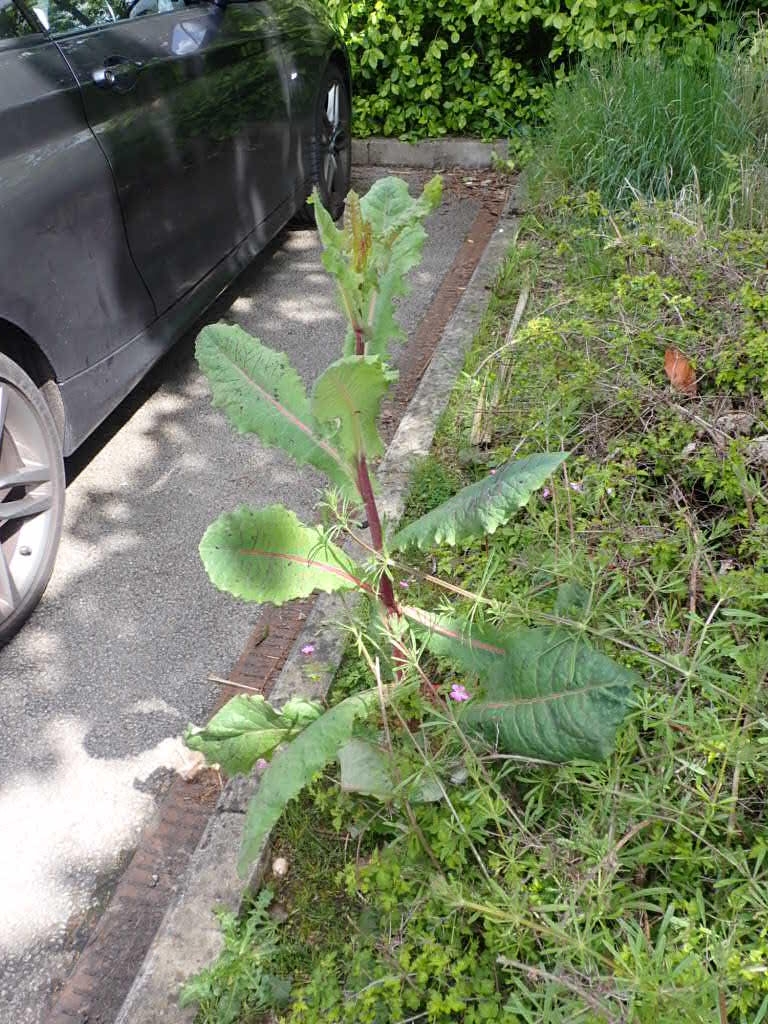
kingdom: Plantae
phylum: Tracheophyta
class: Magnoliopsida
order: Asterales
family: Asteraceae
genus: Lactuca
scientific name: Lactuca virosa
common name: Great lettuce
